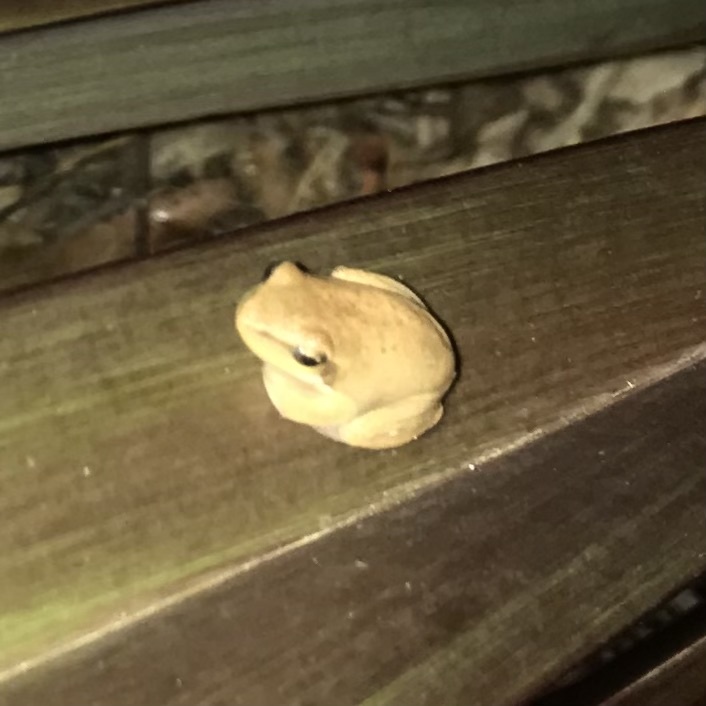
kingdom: Animalia
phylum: Chordata
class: Amphibia
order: Anura
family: Pelodryadidae
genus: Litoria
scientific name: Litoria fallax
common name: Eastern dwarf treefrog
